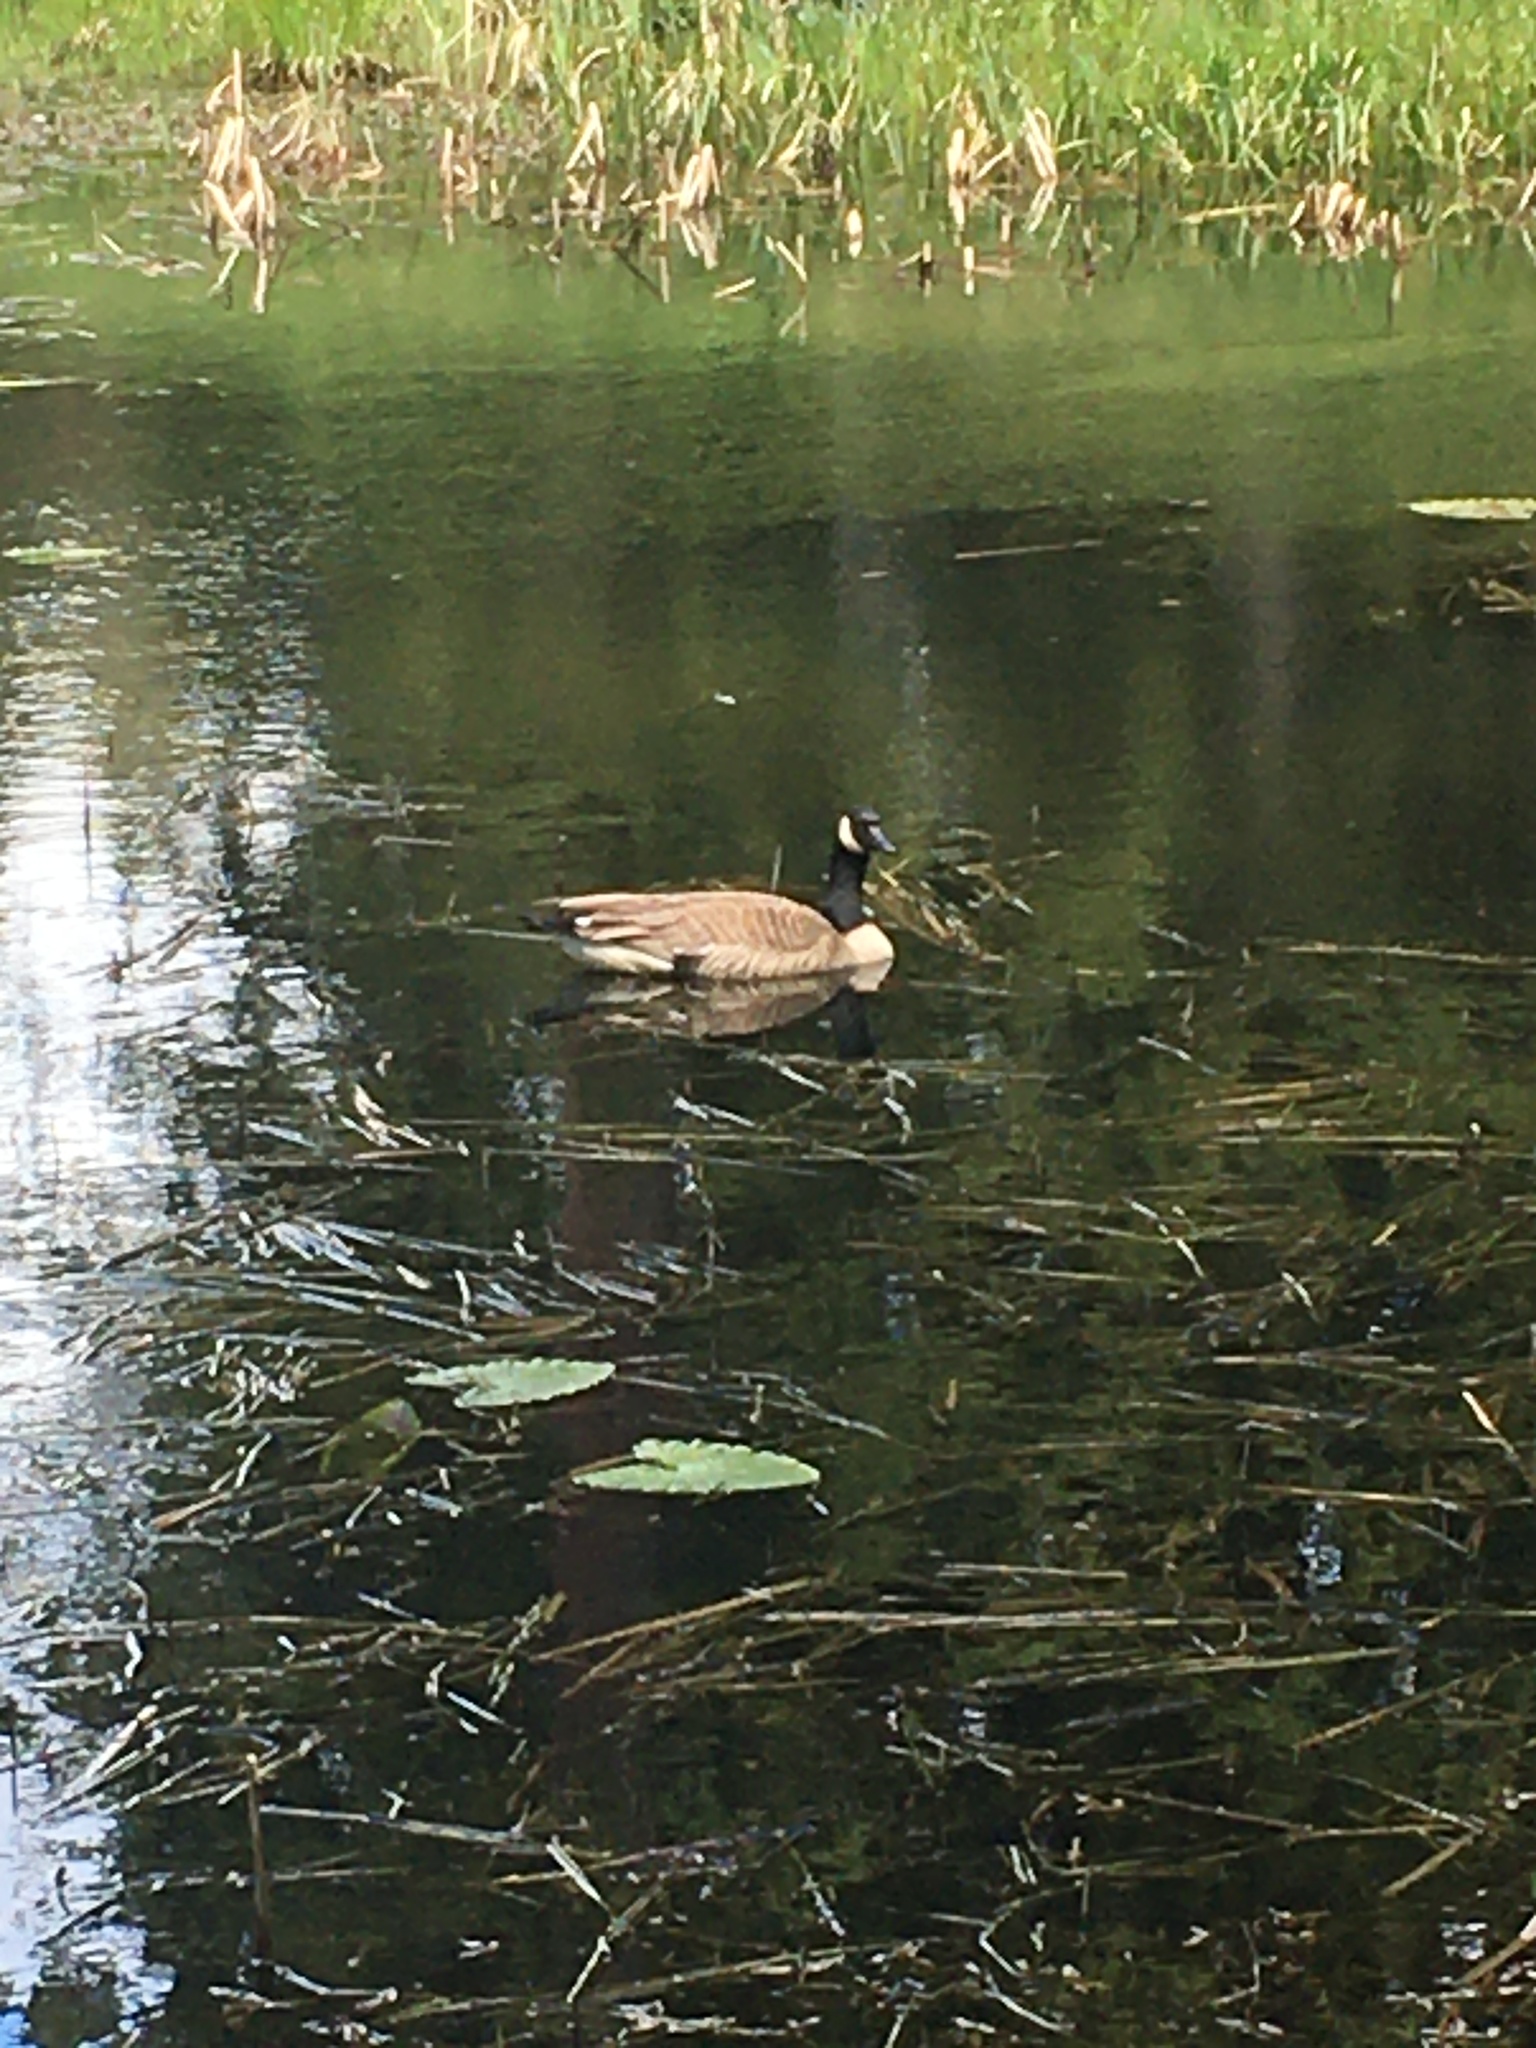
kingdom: Animalia
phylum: Chordata
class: Aves
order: Anseriformes
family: Anatidae
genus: Branta
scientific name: Branta canadensis
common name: Canada goose
